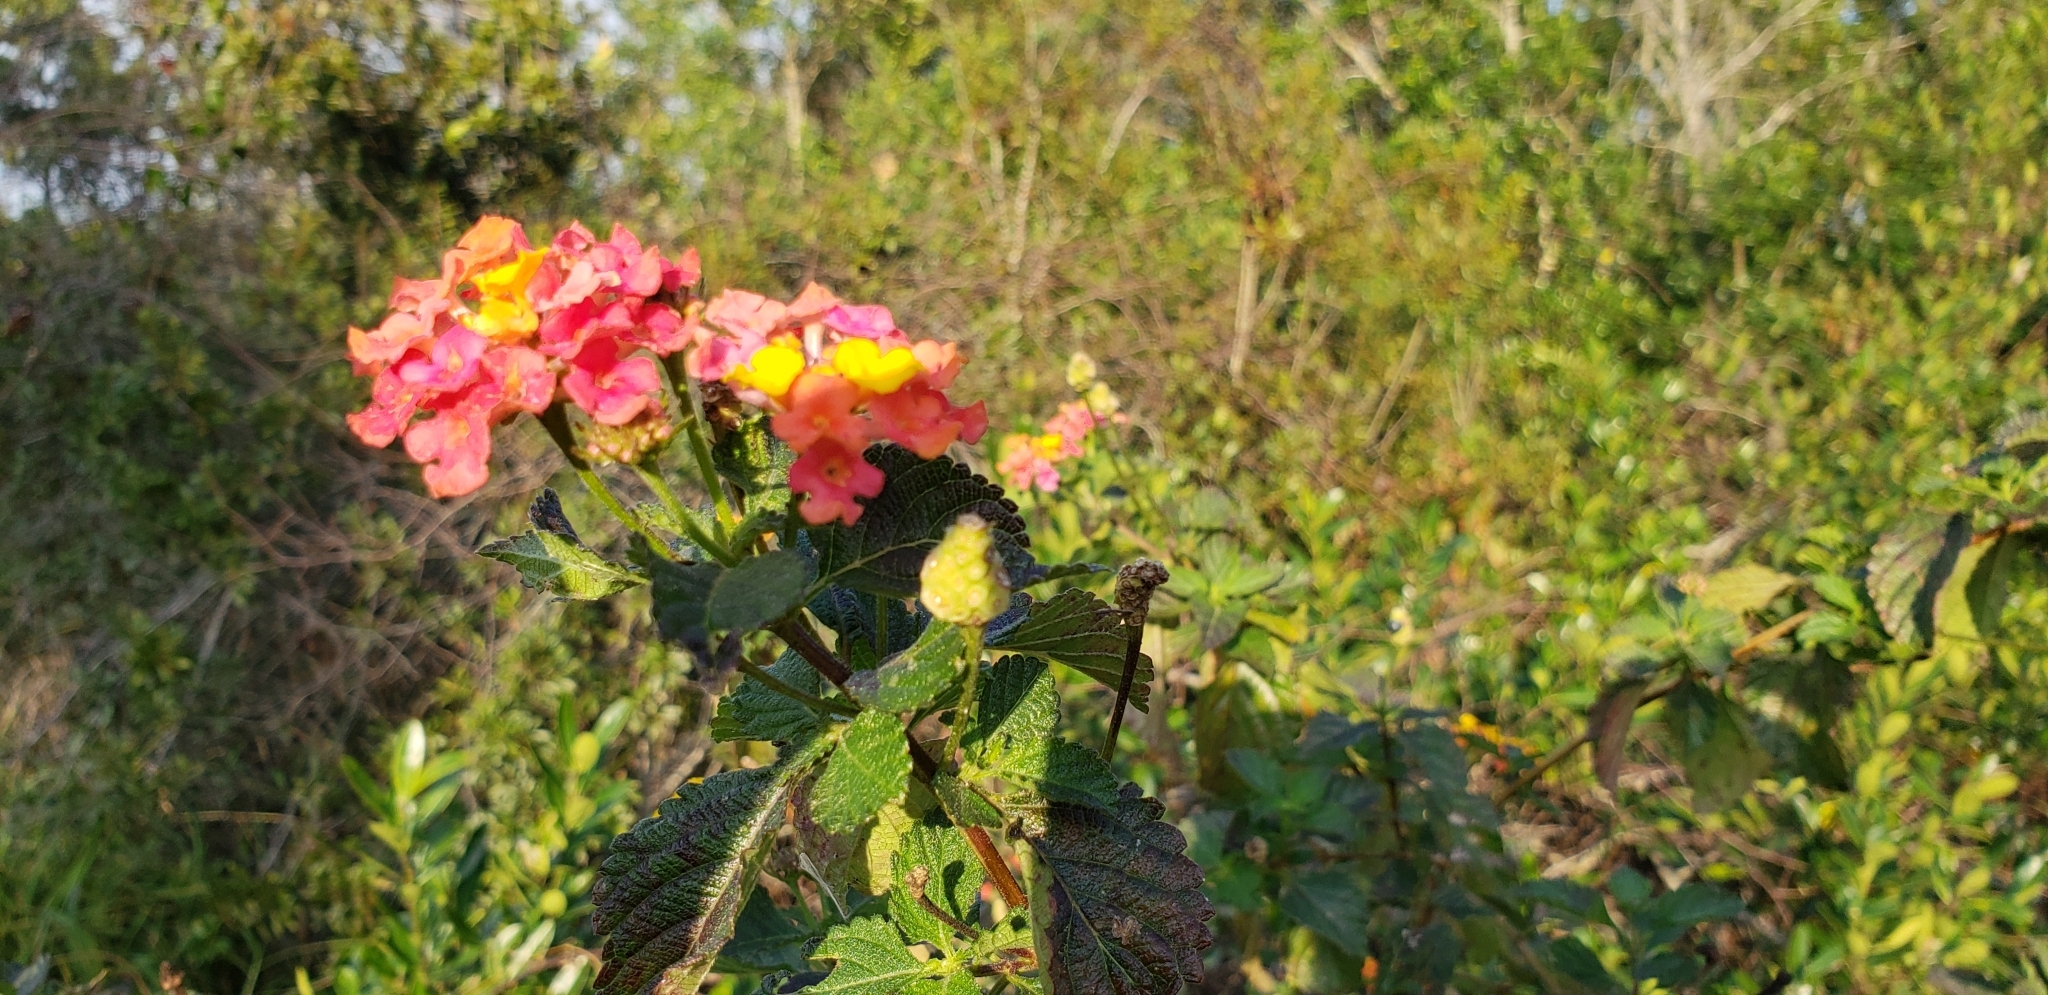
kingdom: Plantae
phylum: Tracheophyta
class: Magnoliopsida
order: Lamiales
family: Verbenaceae
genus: Lantana
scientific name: Lantana camara
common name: Lantana
